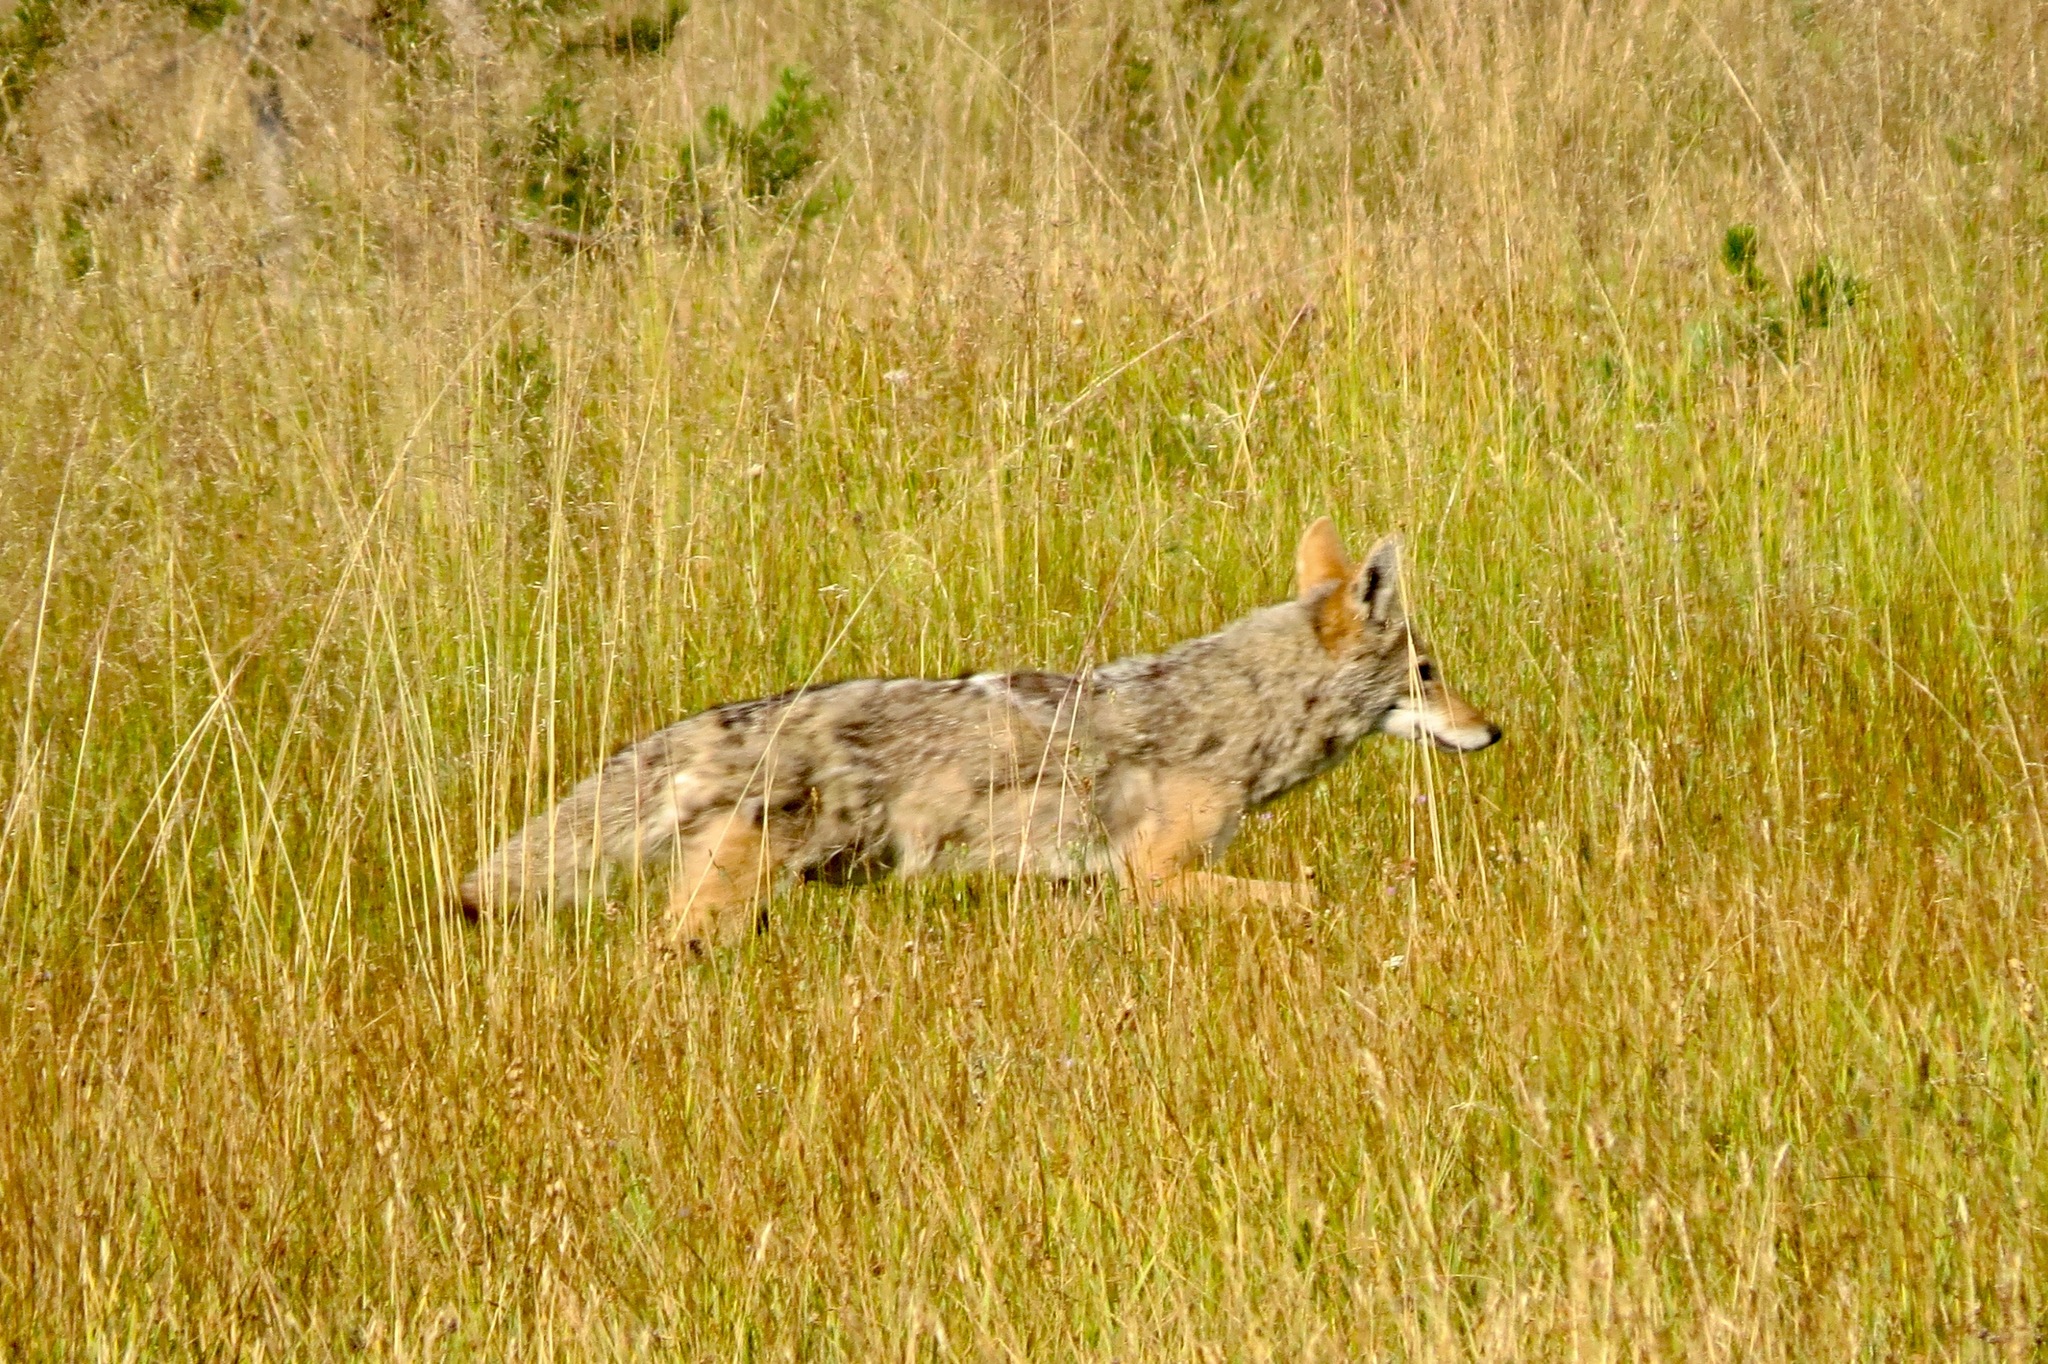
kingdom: Animalia
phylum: Chordata
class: Mammalia
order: Carnivora
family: Canidae
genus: Canis
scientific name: Canis latrans
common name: Coyote
